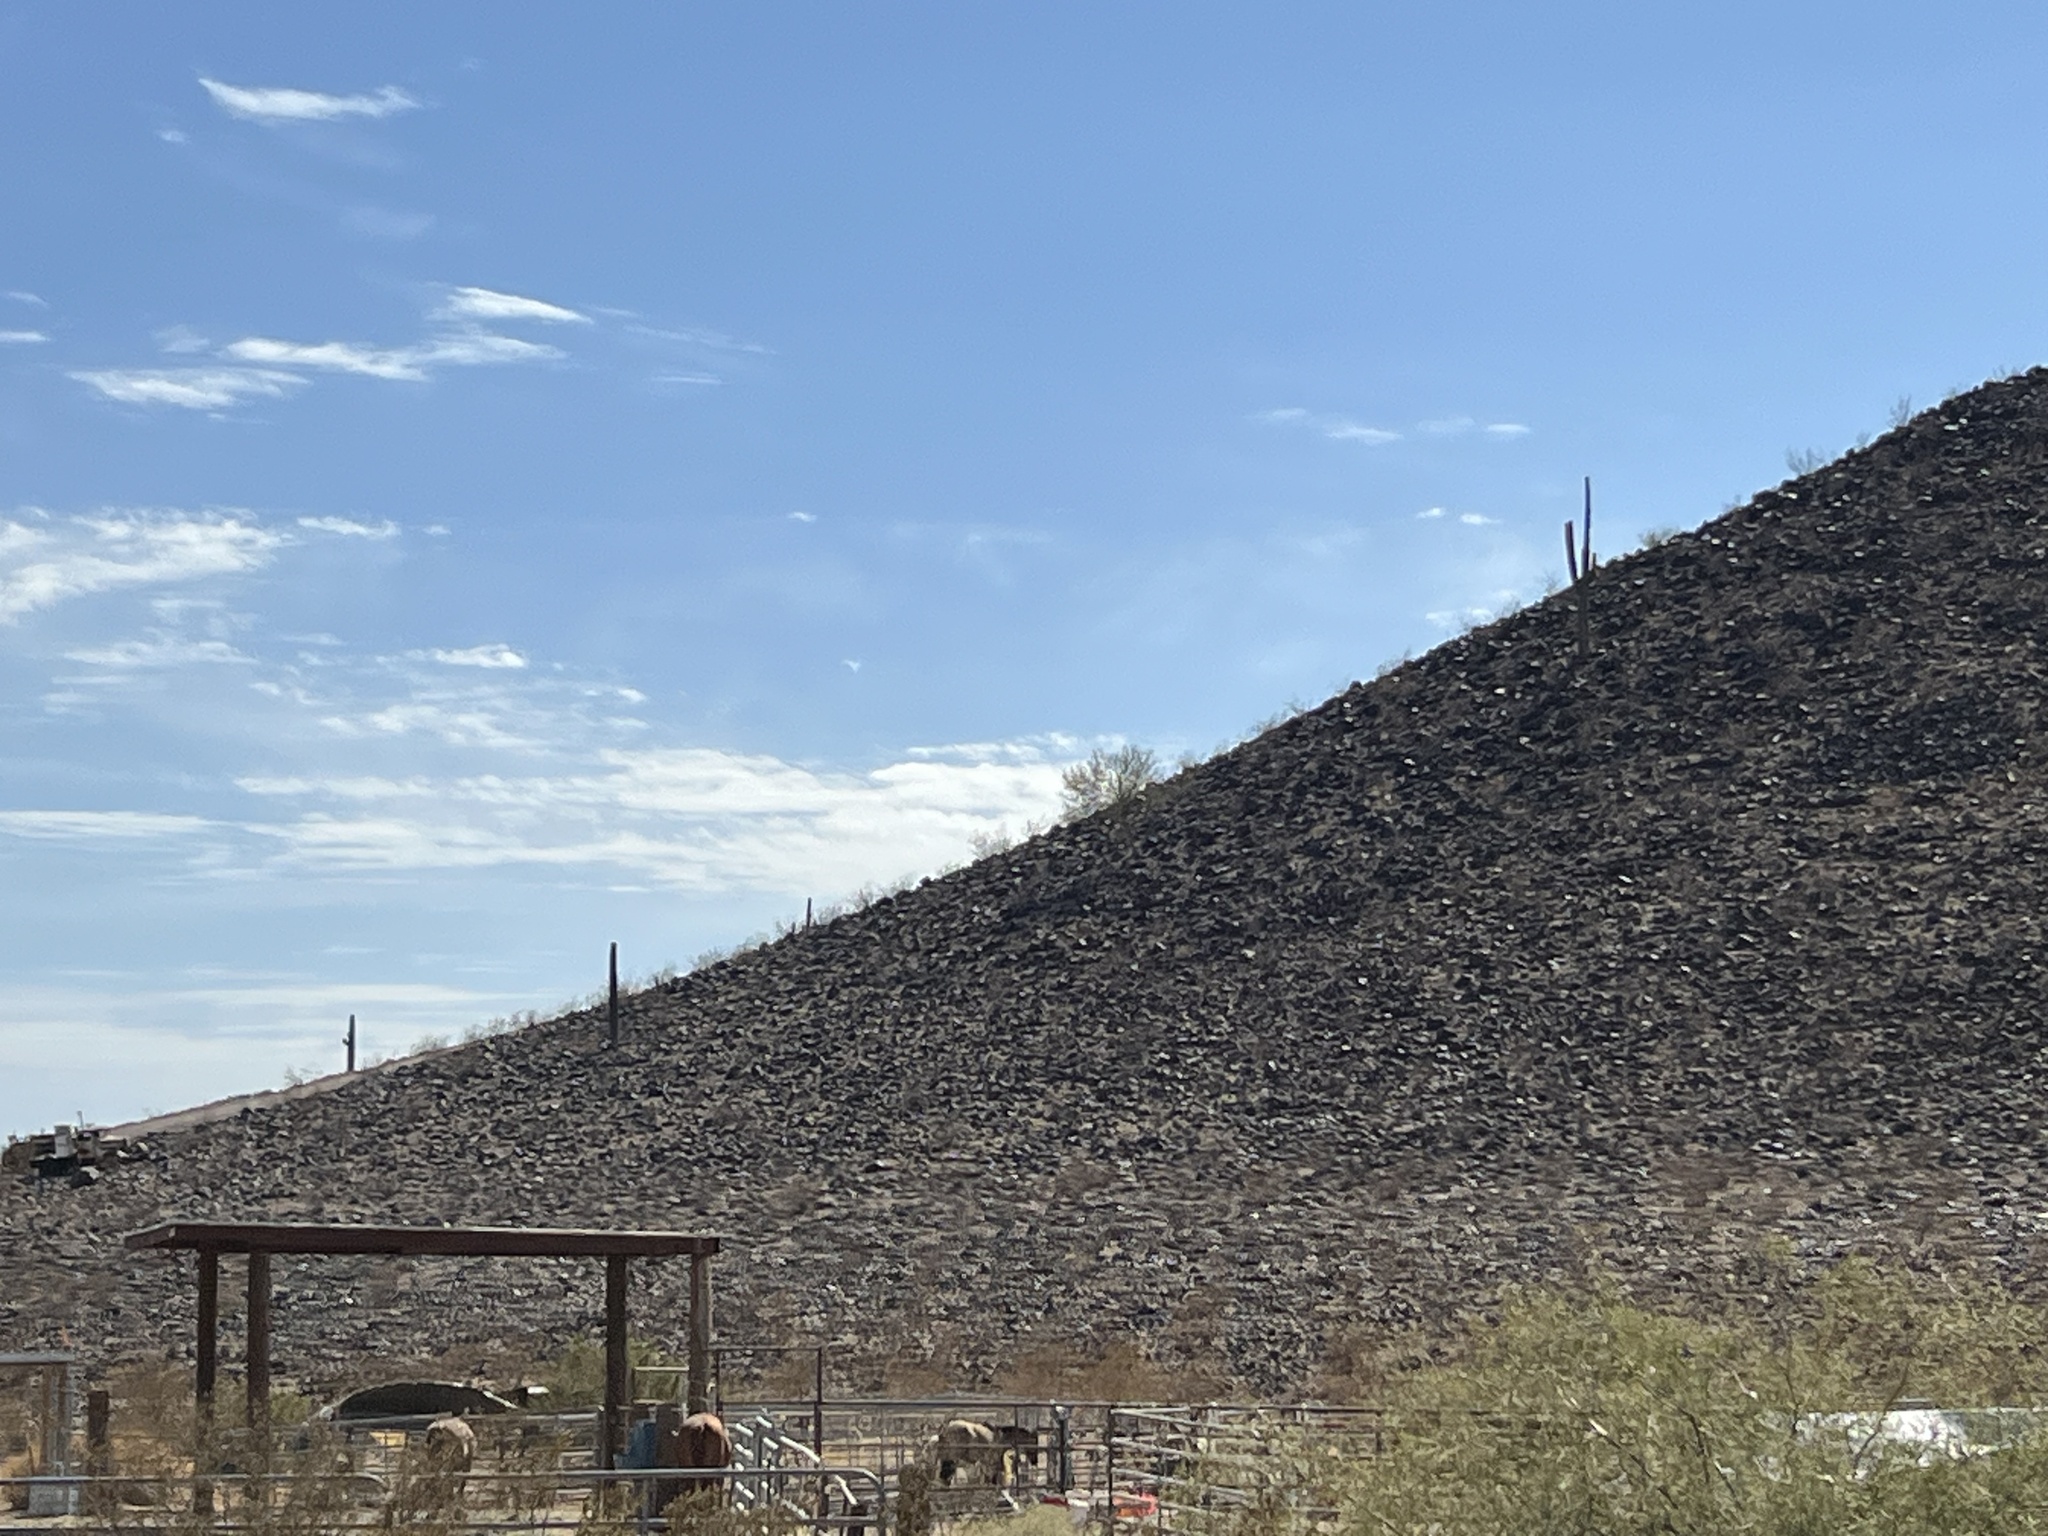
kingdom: Plantae
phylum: Tracheophyta
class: Magnoliopsida
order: Caryophyllales
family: Cactaceae
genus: Carnegiea
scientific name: Carnegiea gigantea
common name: Saguaro
